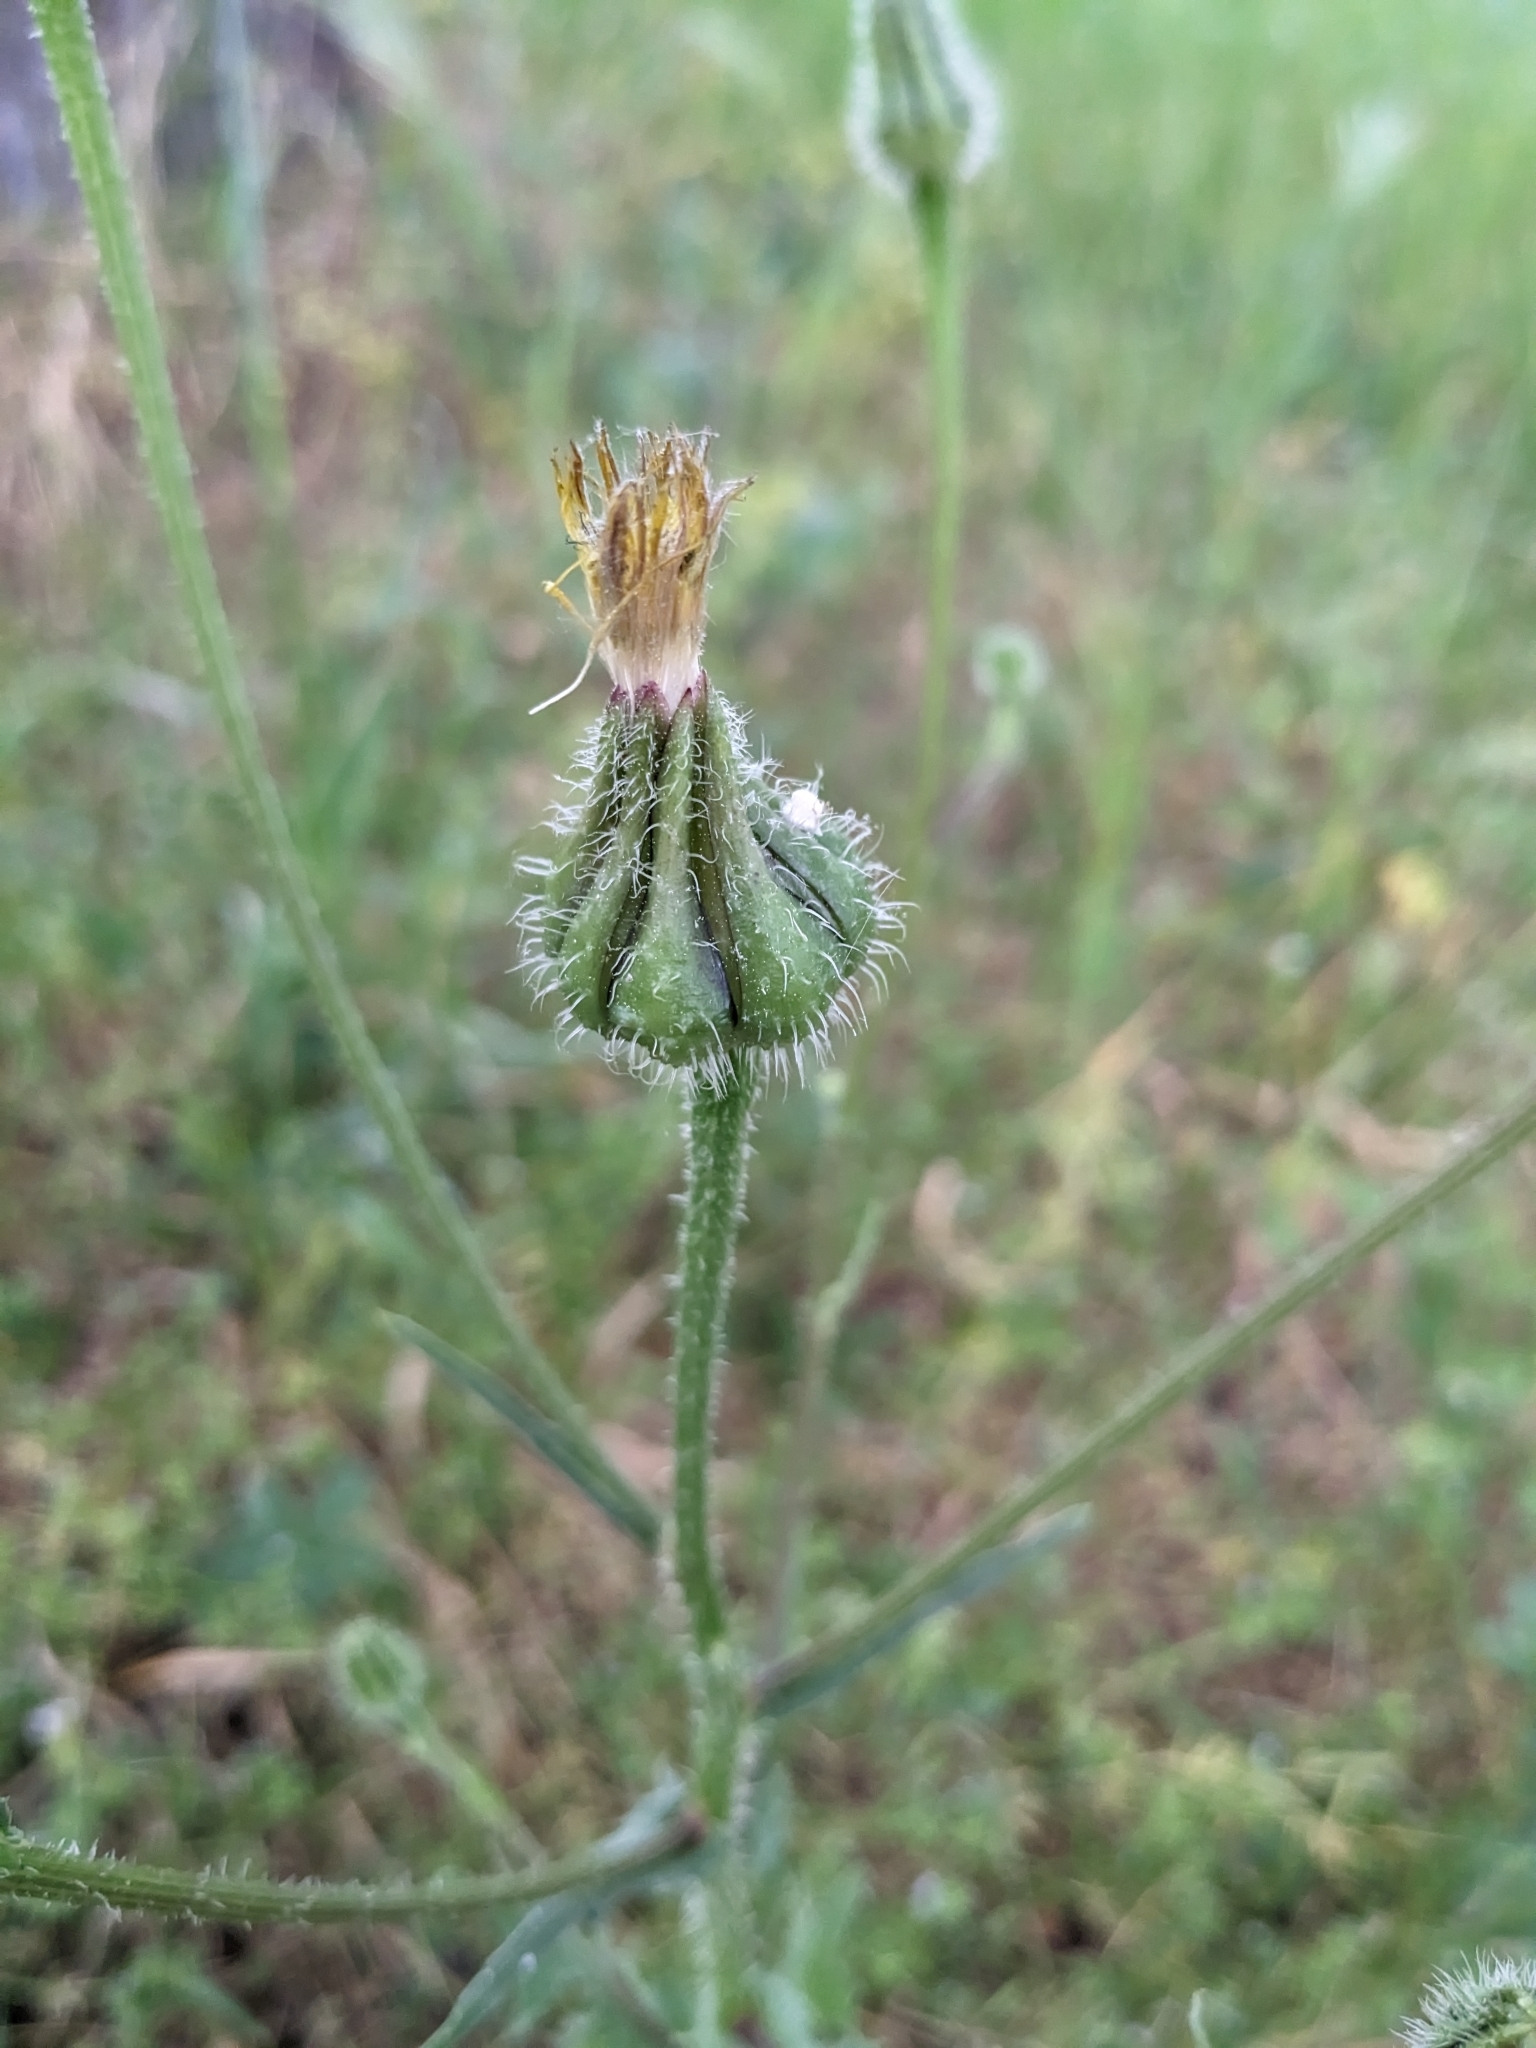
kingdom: Plantae
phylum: Tracheophyta
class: Magnoliopsida
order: Asterales
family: Asteraceae
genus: Urospermum
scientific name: Urospermum picroides
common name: False hawkbit
